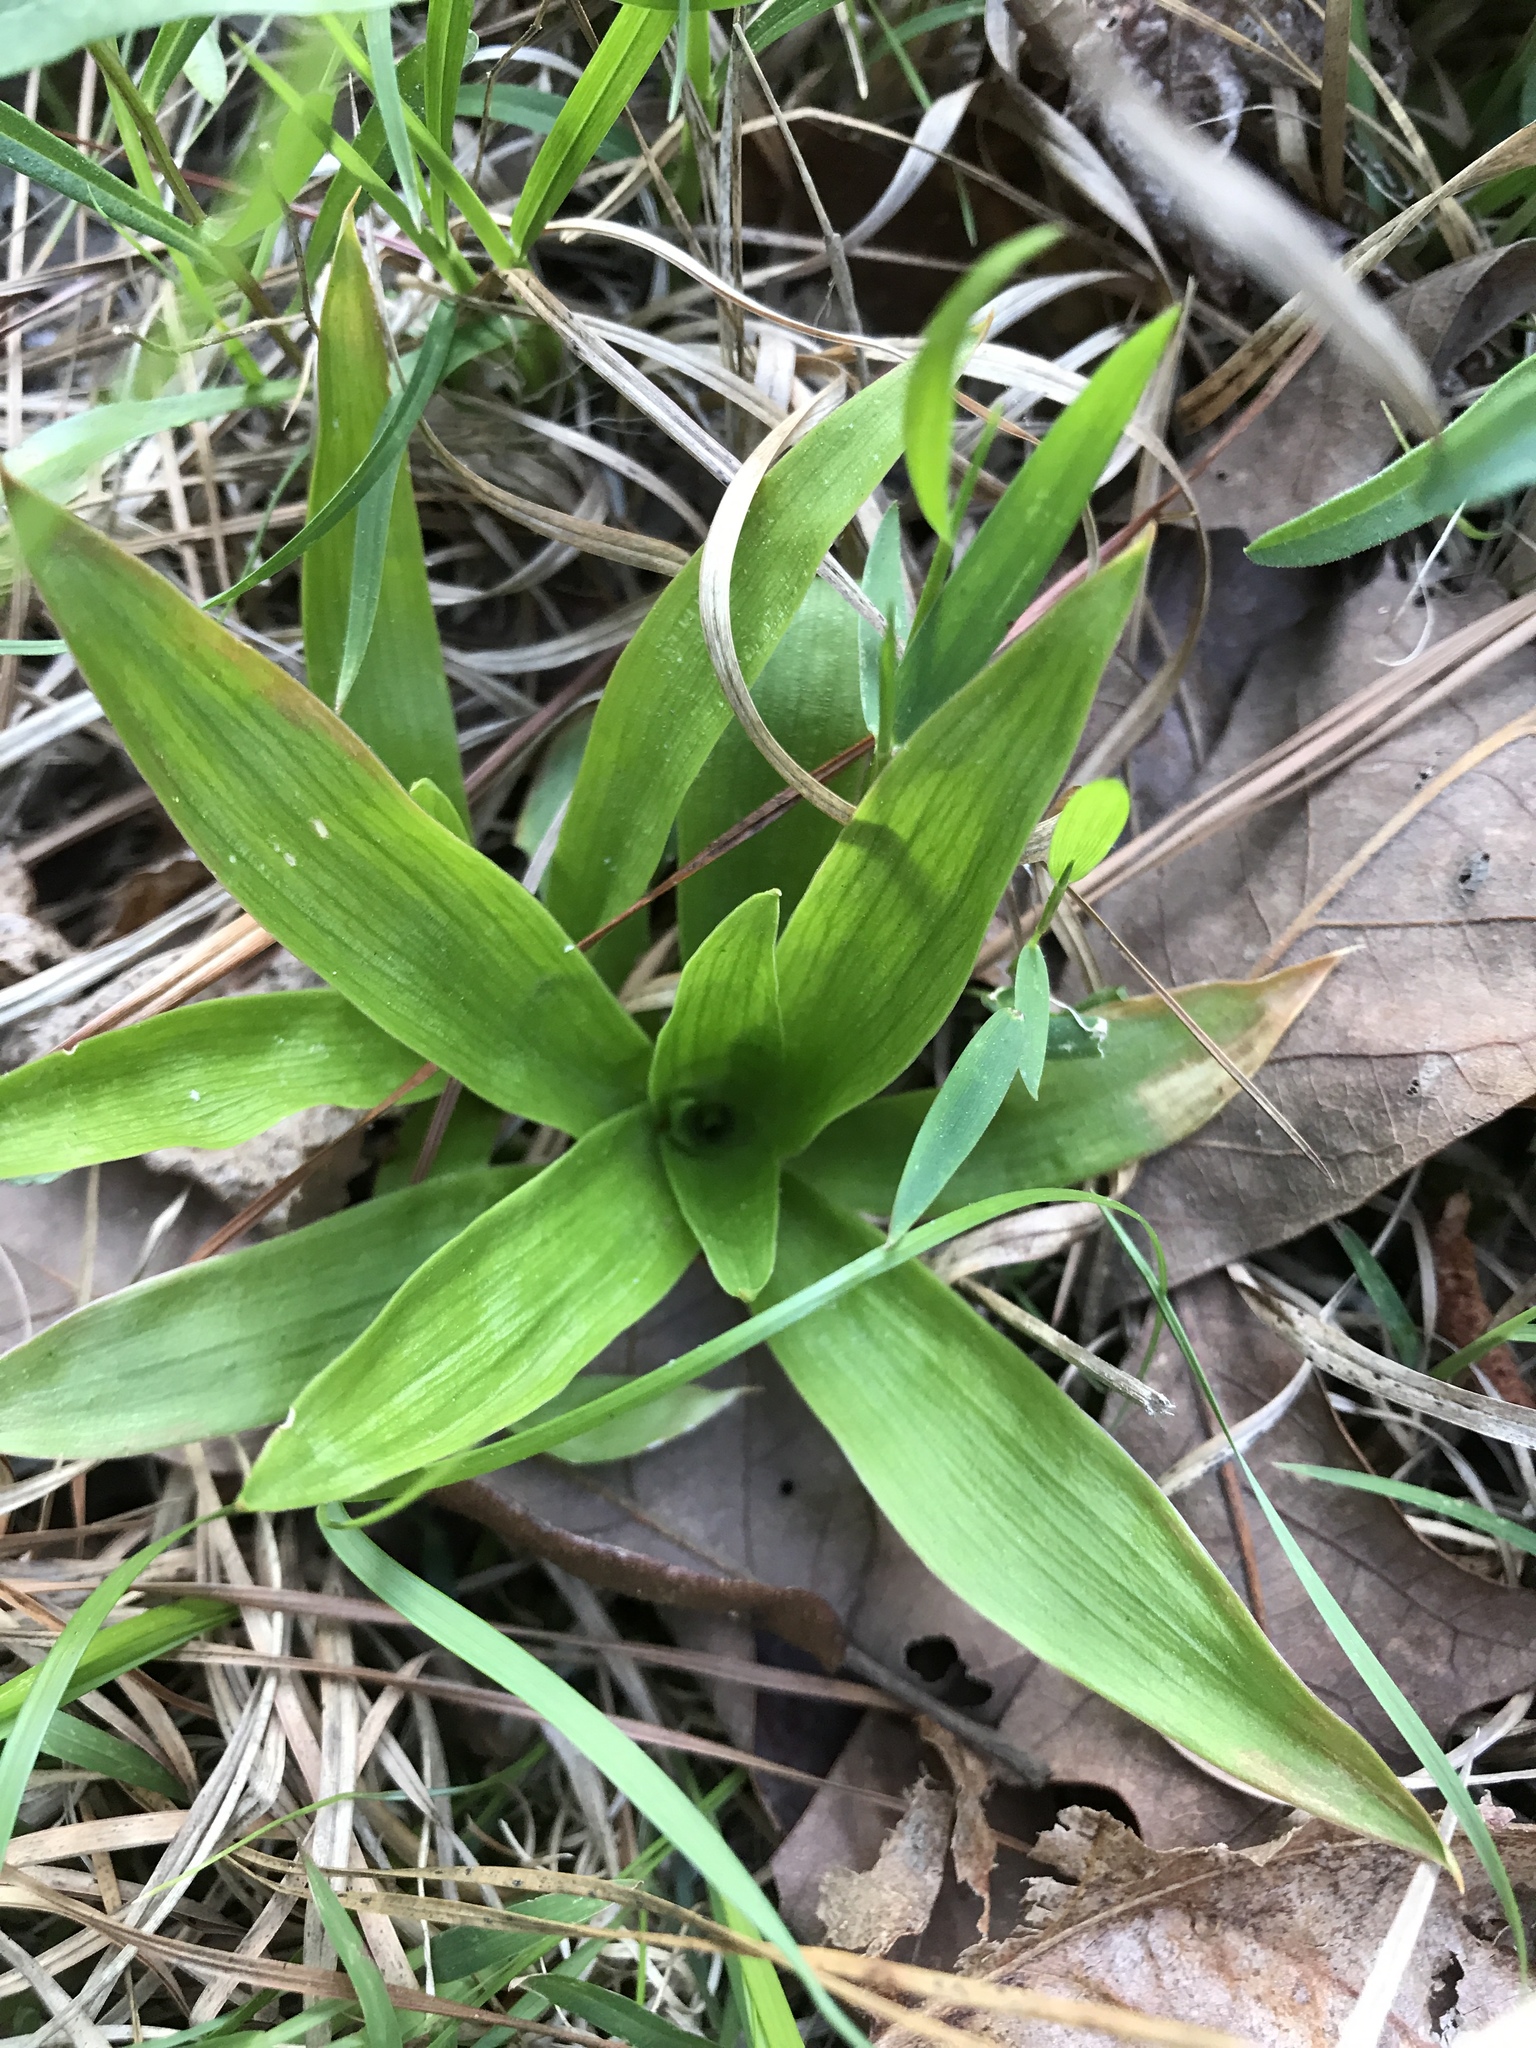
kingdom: Plantae
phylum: Tracheophyta
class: Liliopsida
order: Dioscoreales
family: Nartheciaceae
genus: Aletris
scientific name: Aletris farinosa
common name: Colicroot
